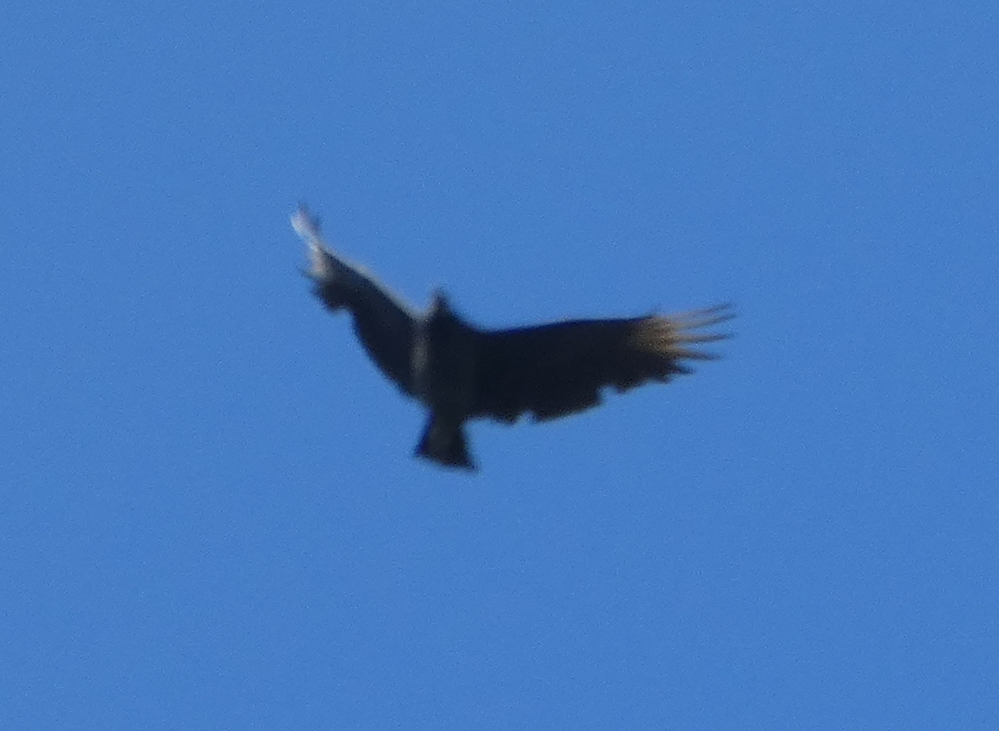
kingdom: Animalia
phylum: Chordata
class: Aves
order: Accipitriformes
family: Cathartidae
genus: Coragyps
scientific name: Coragyps atratus
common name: Black vulture
